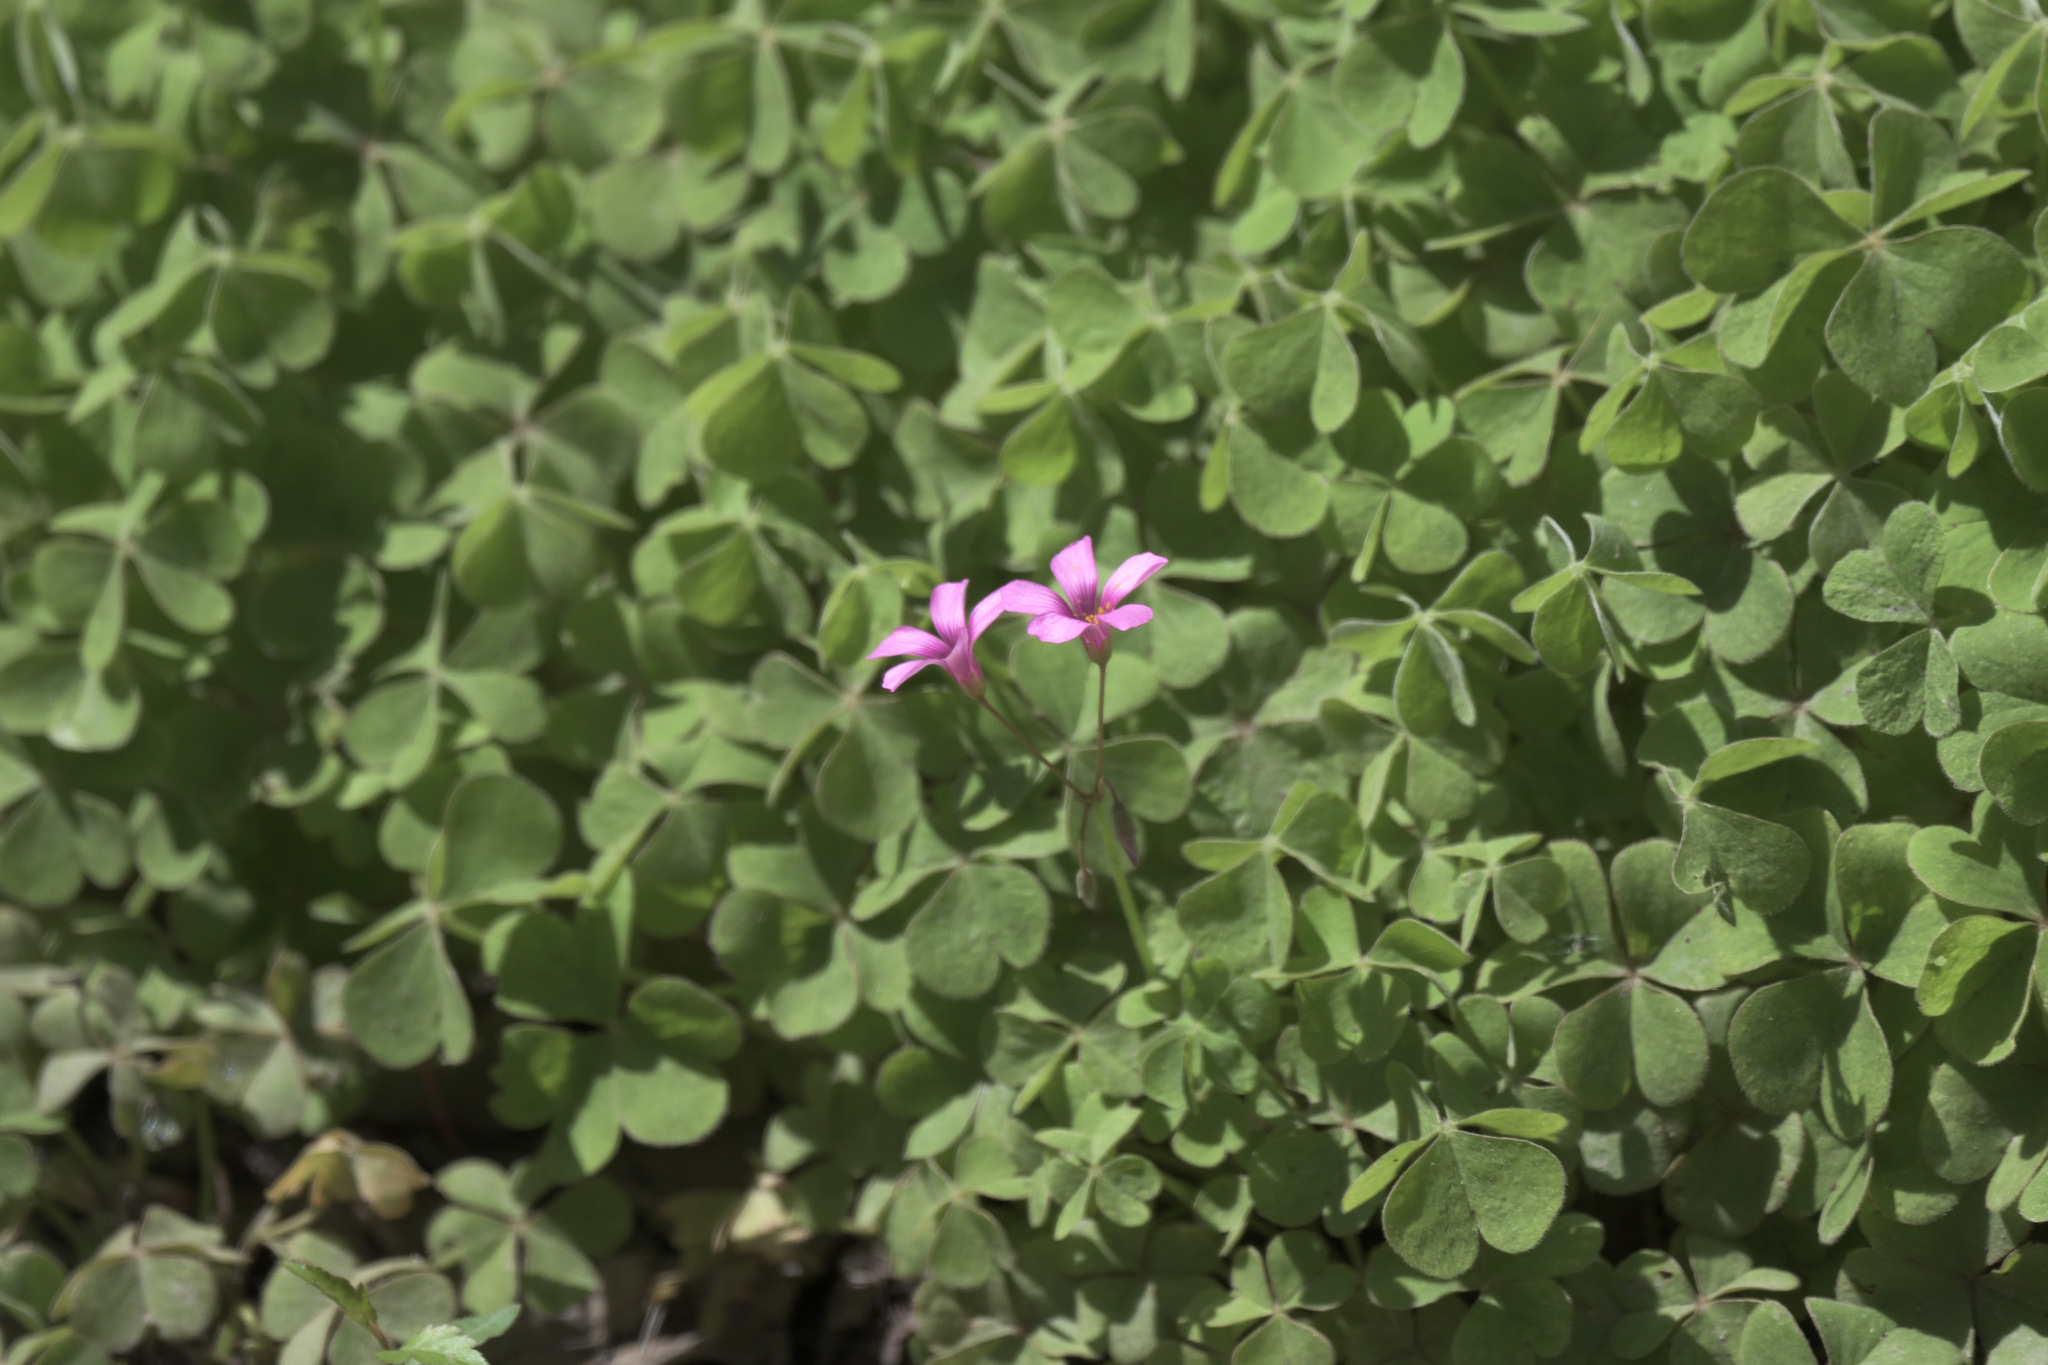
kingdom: Plantae
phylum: Tracheophyta
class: Magnoliopsida
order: Oxalidales
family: Oxalidaceae
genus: Oxalis
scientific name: Oxalis articulata
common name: Pink-sorrel
